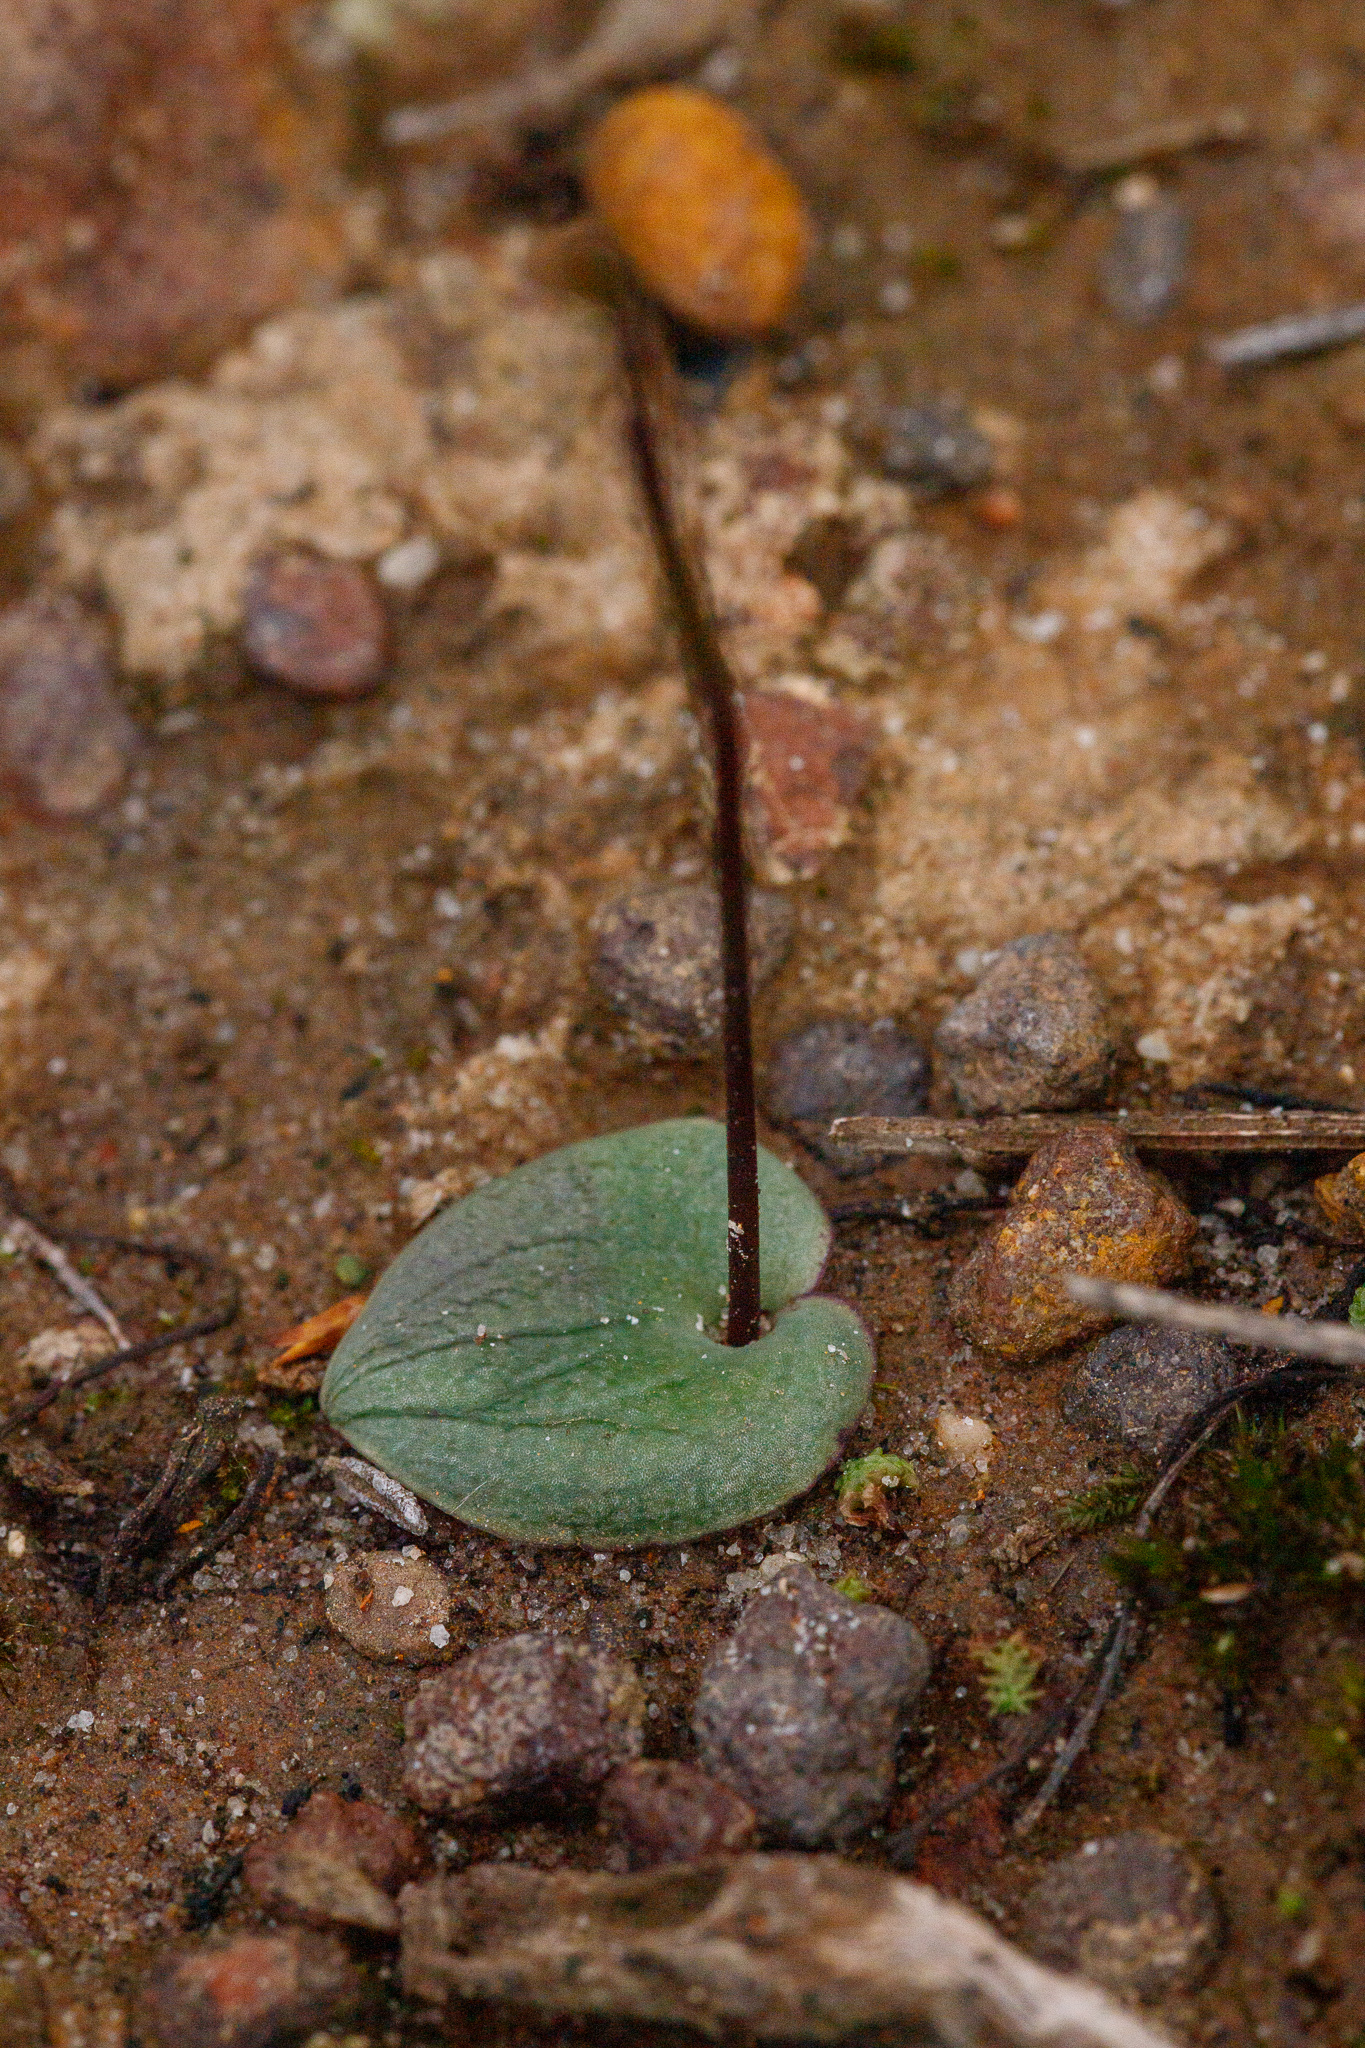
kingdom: Plantae
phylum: Tracheophyta
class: Liliopsida
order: Asparagales
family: Orchidaceae
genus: Drakaea
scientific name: Drakaea livida
